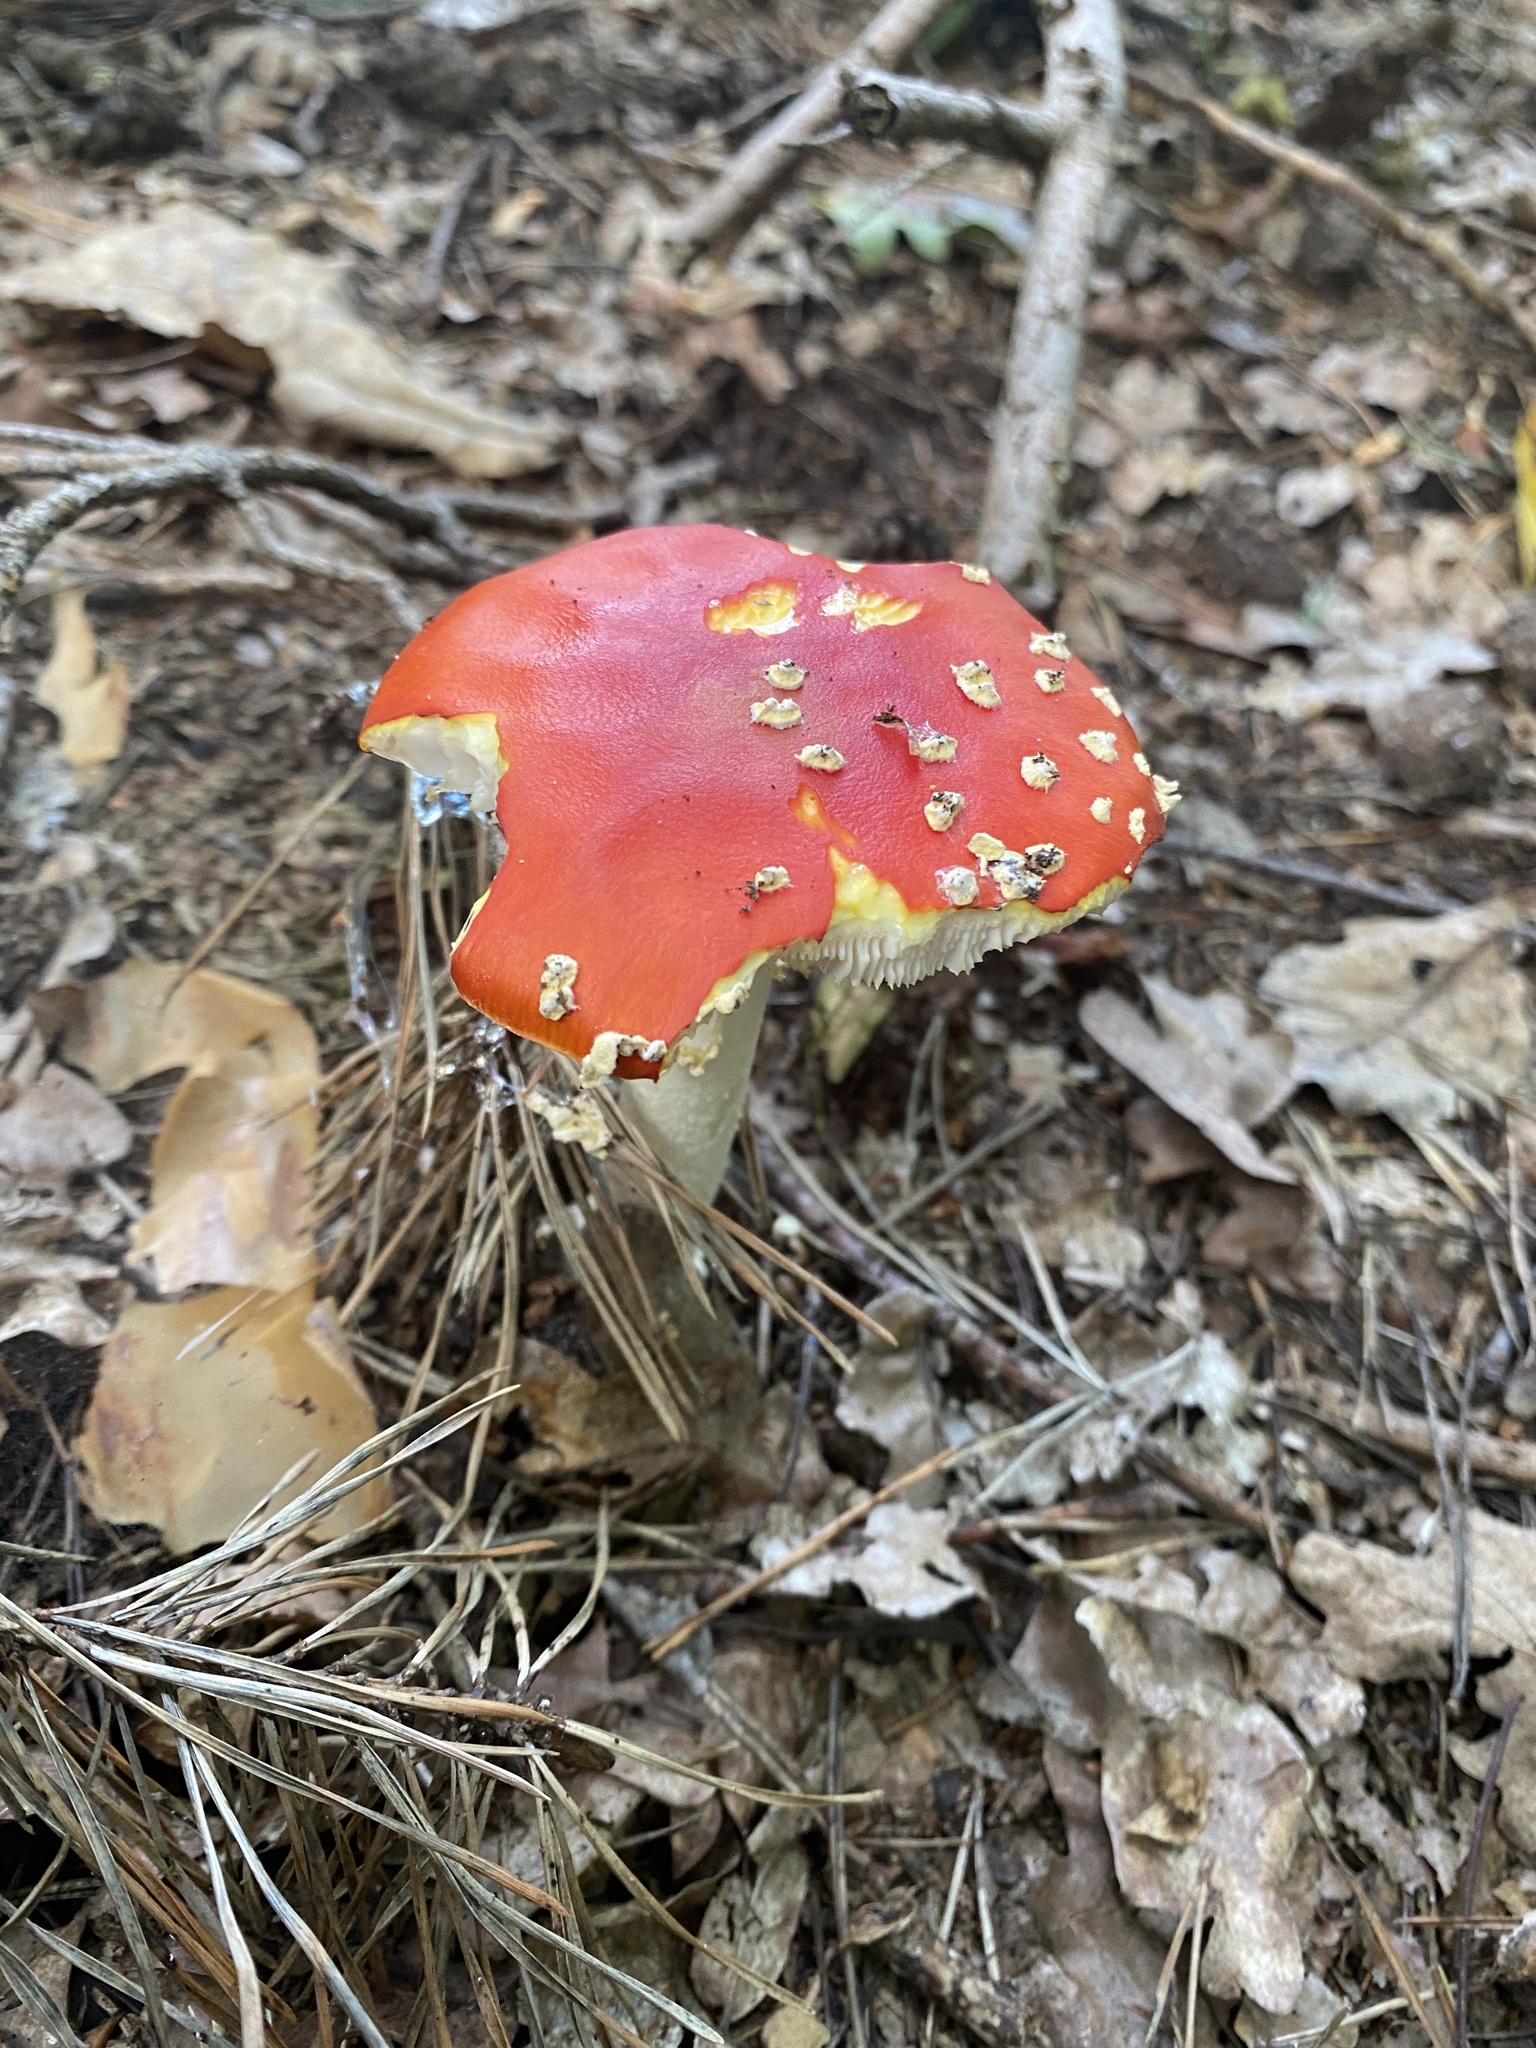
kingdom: Fungi
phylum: Basidiomycota
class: Agaricomycetes
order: Agaricales
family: Amanitaceae
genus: Amanita
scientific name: Amanita muscaria
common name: Fly agaric
